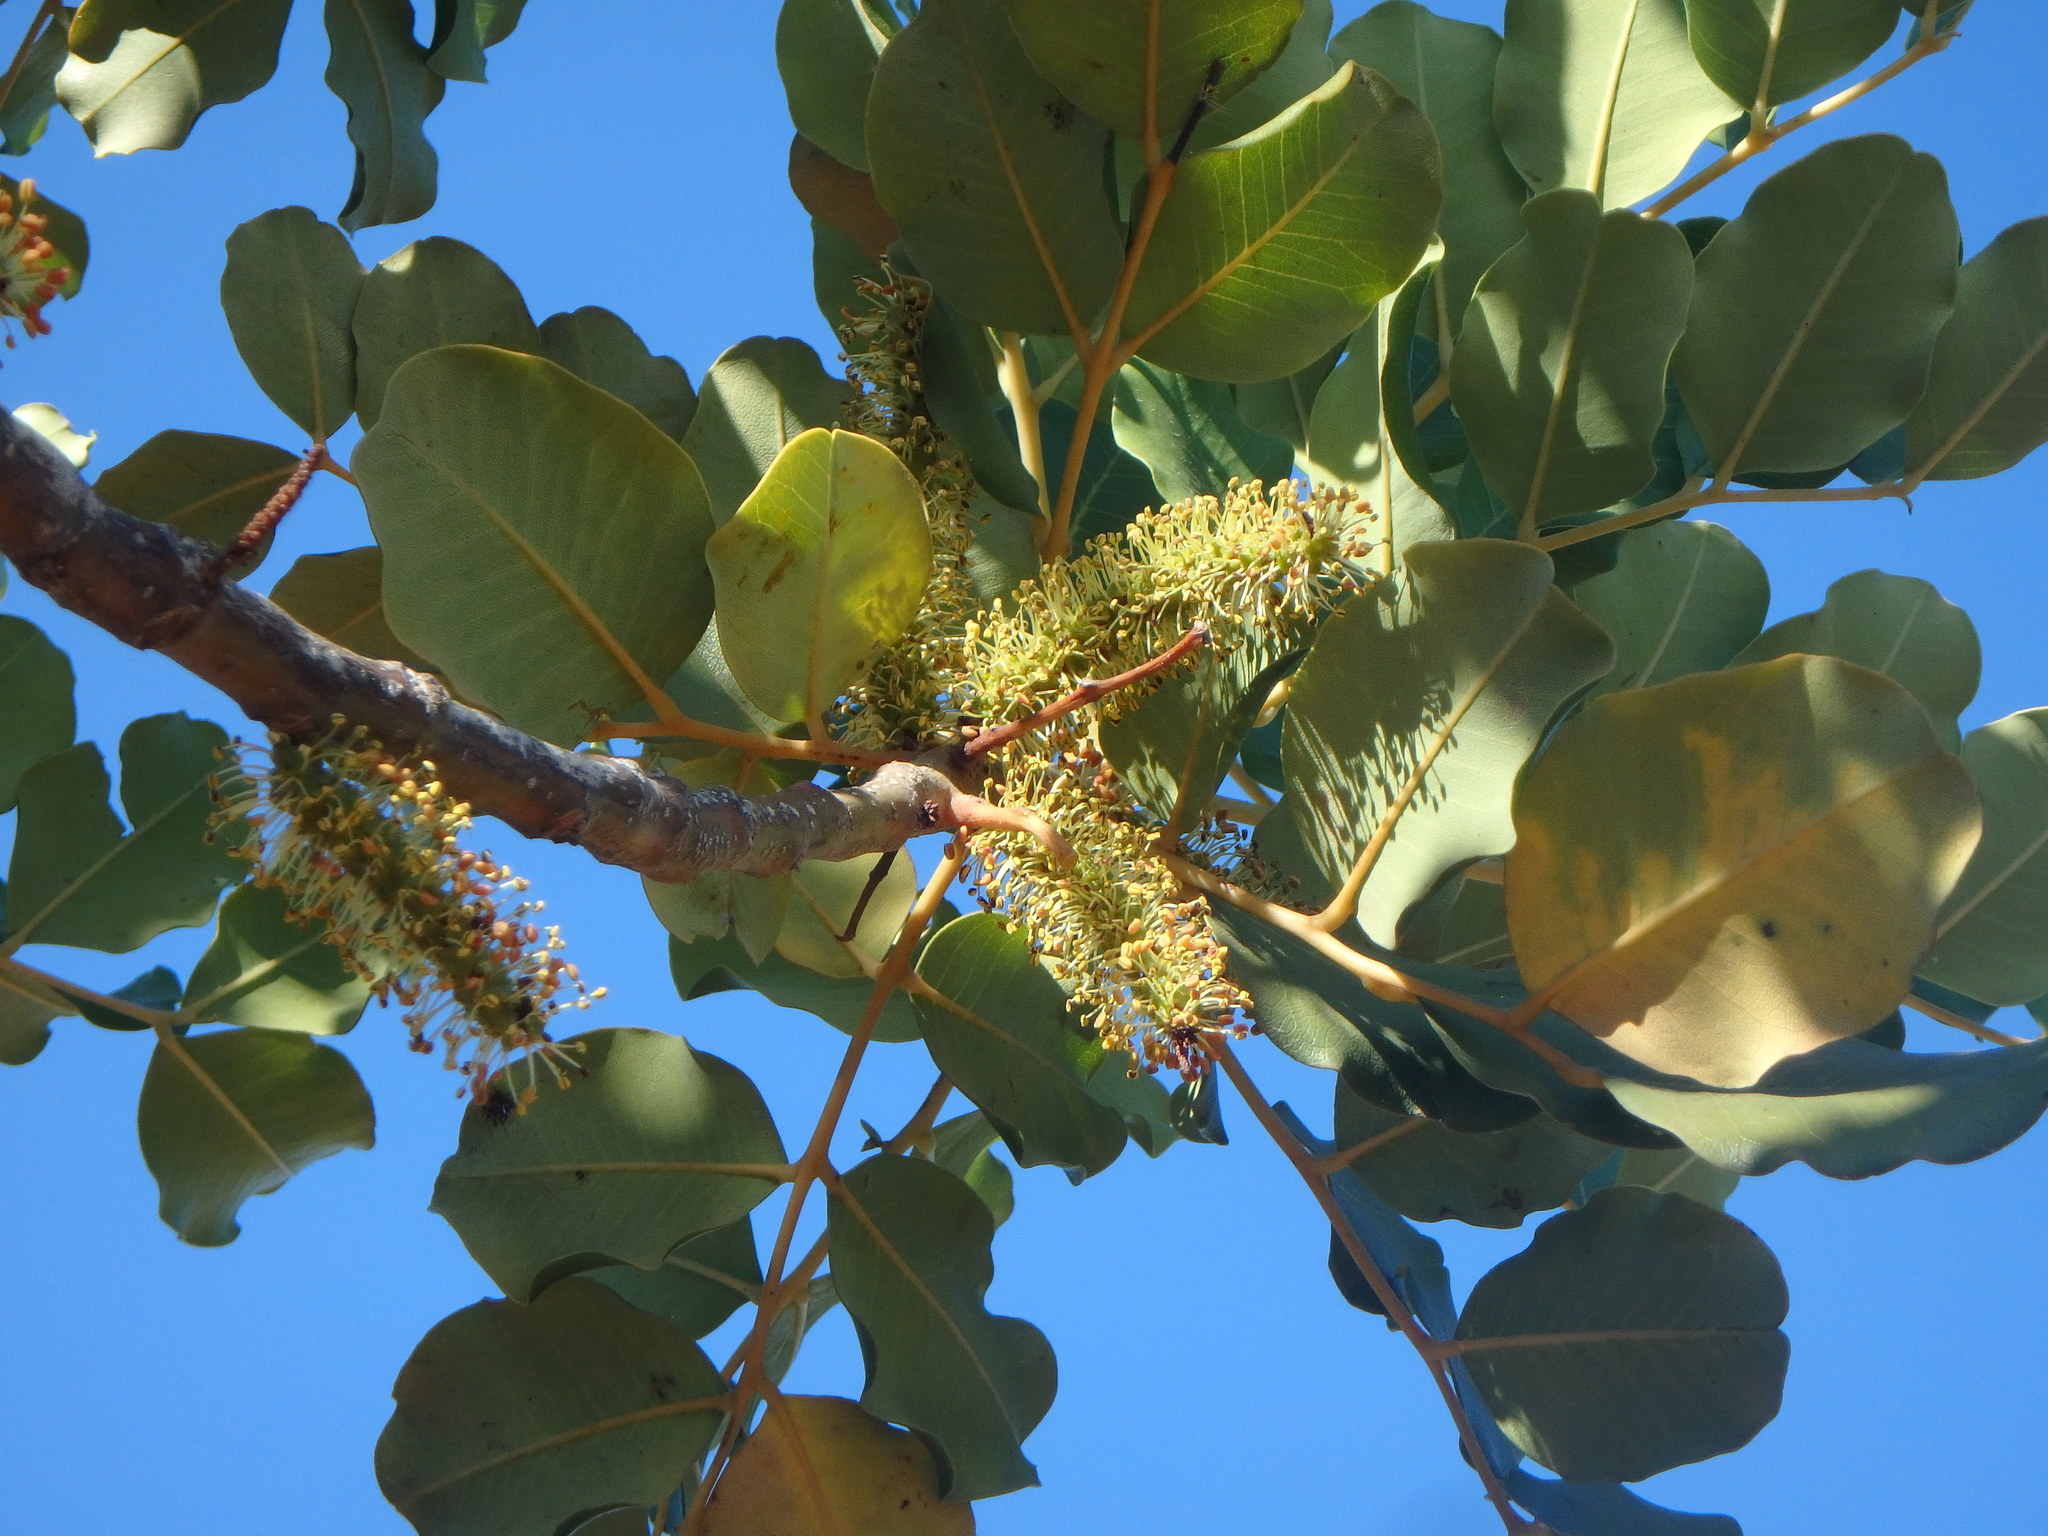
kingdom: Plantae
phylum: Tracheophyta
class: Magnoliopsida
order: Fabales
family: Fabaceae
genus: Ceratonia
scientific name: Ceratonia siliqua
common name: Carob
